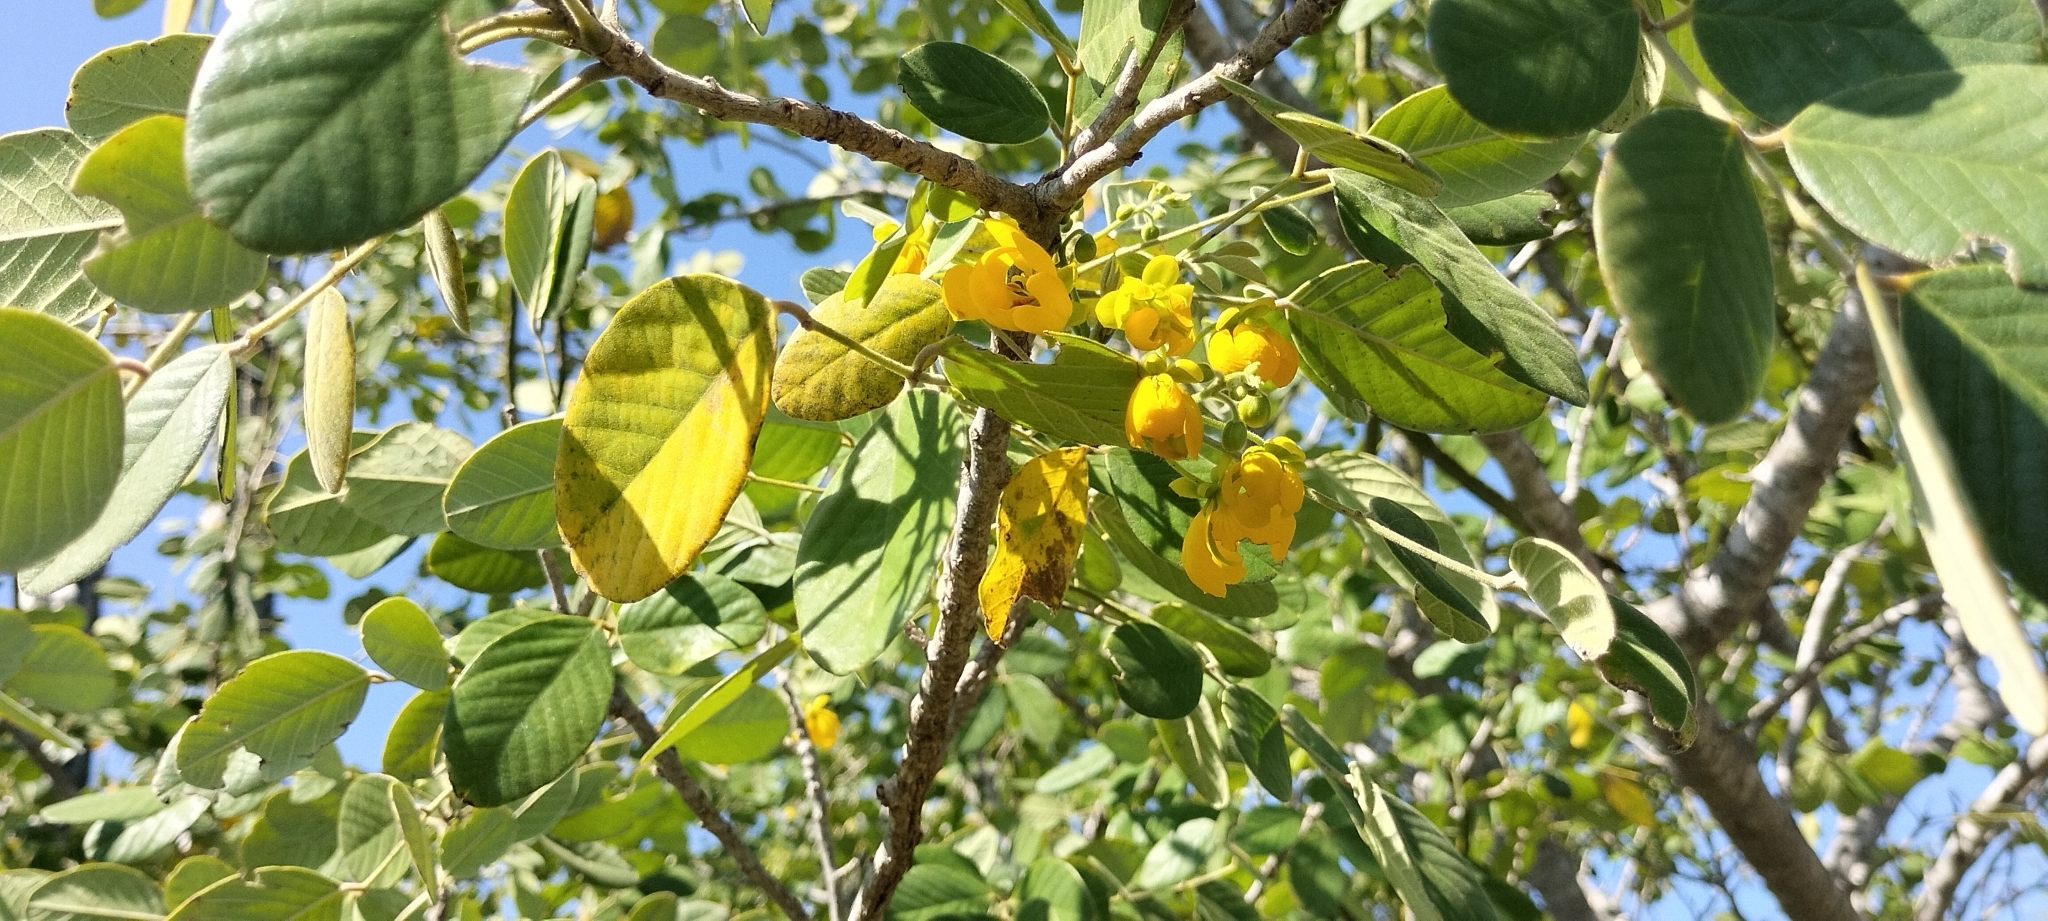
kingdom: Plantae
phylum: Tracheophyta
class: Magnoliopsida
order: Fabales
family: Fabaceae
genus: Senna
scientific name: Senna atomaria
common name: Flor de san jose
